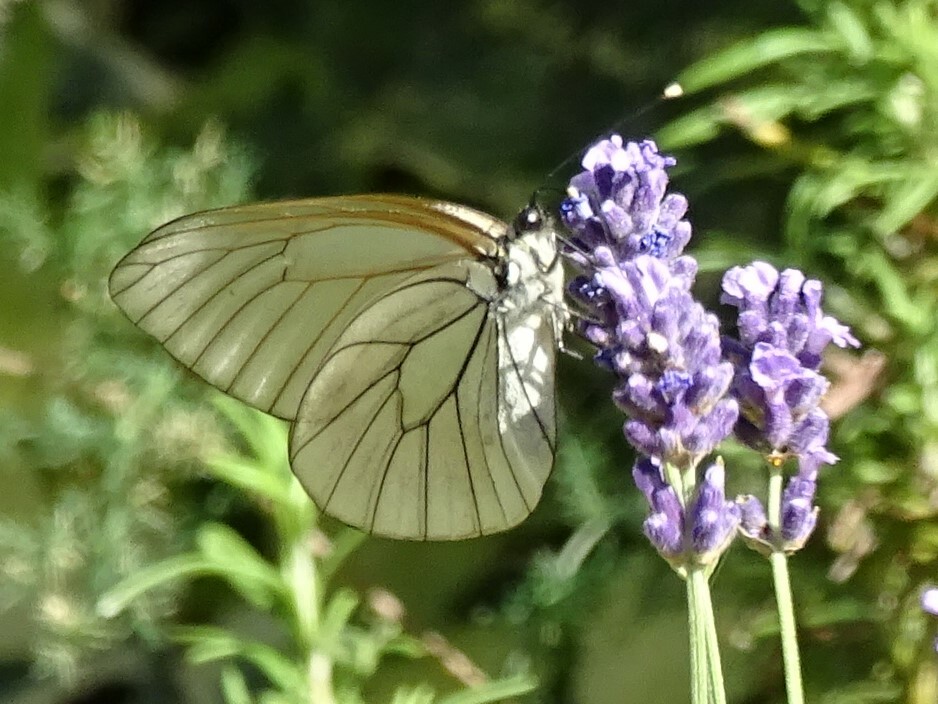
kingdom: Animalia
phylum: Arthropoda
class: Insecta
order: Lepidoptera
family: Pieridae
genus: Aporia
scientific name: Aporia crataegi
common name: Black-veined white
